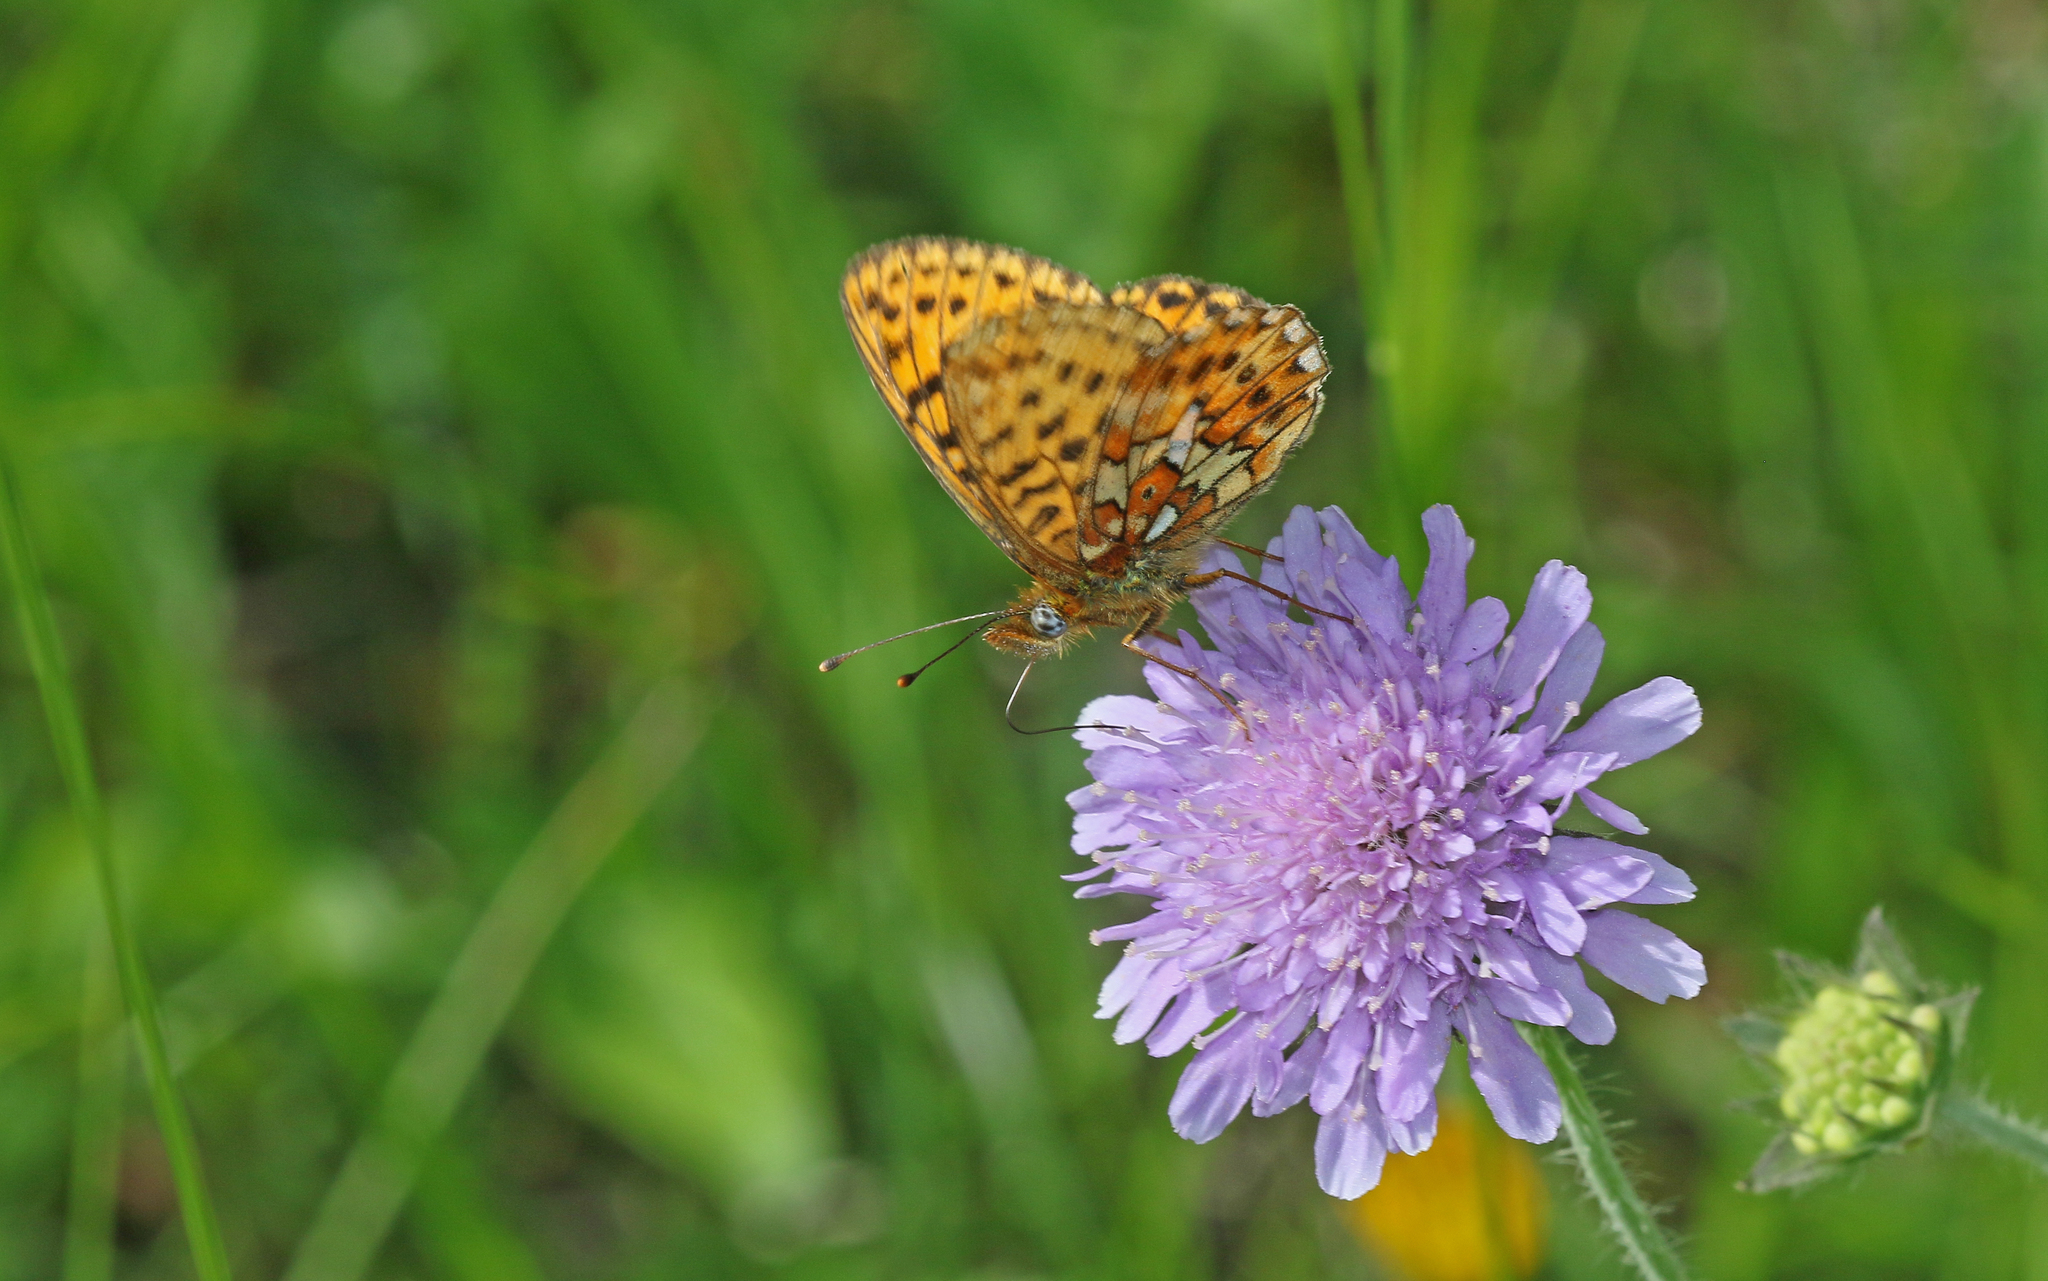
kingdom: Animalia
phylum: Arthropoda
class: Insecta
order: Lepidoptera
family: Nymphalidae
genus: Clossiana
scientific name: Clossiana euphrosyne
